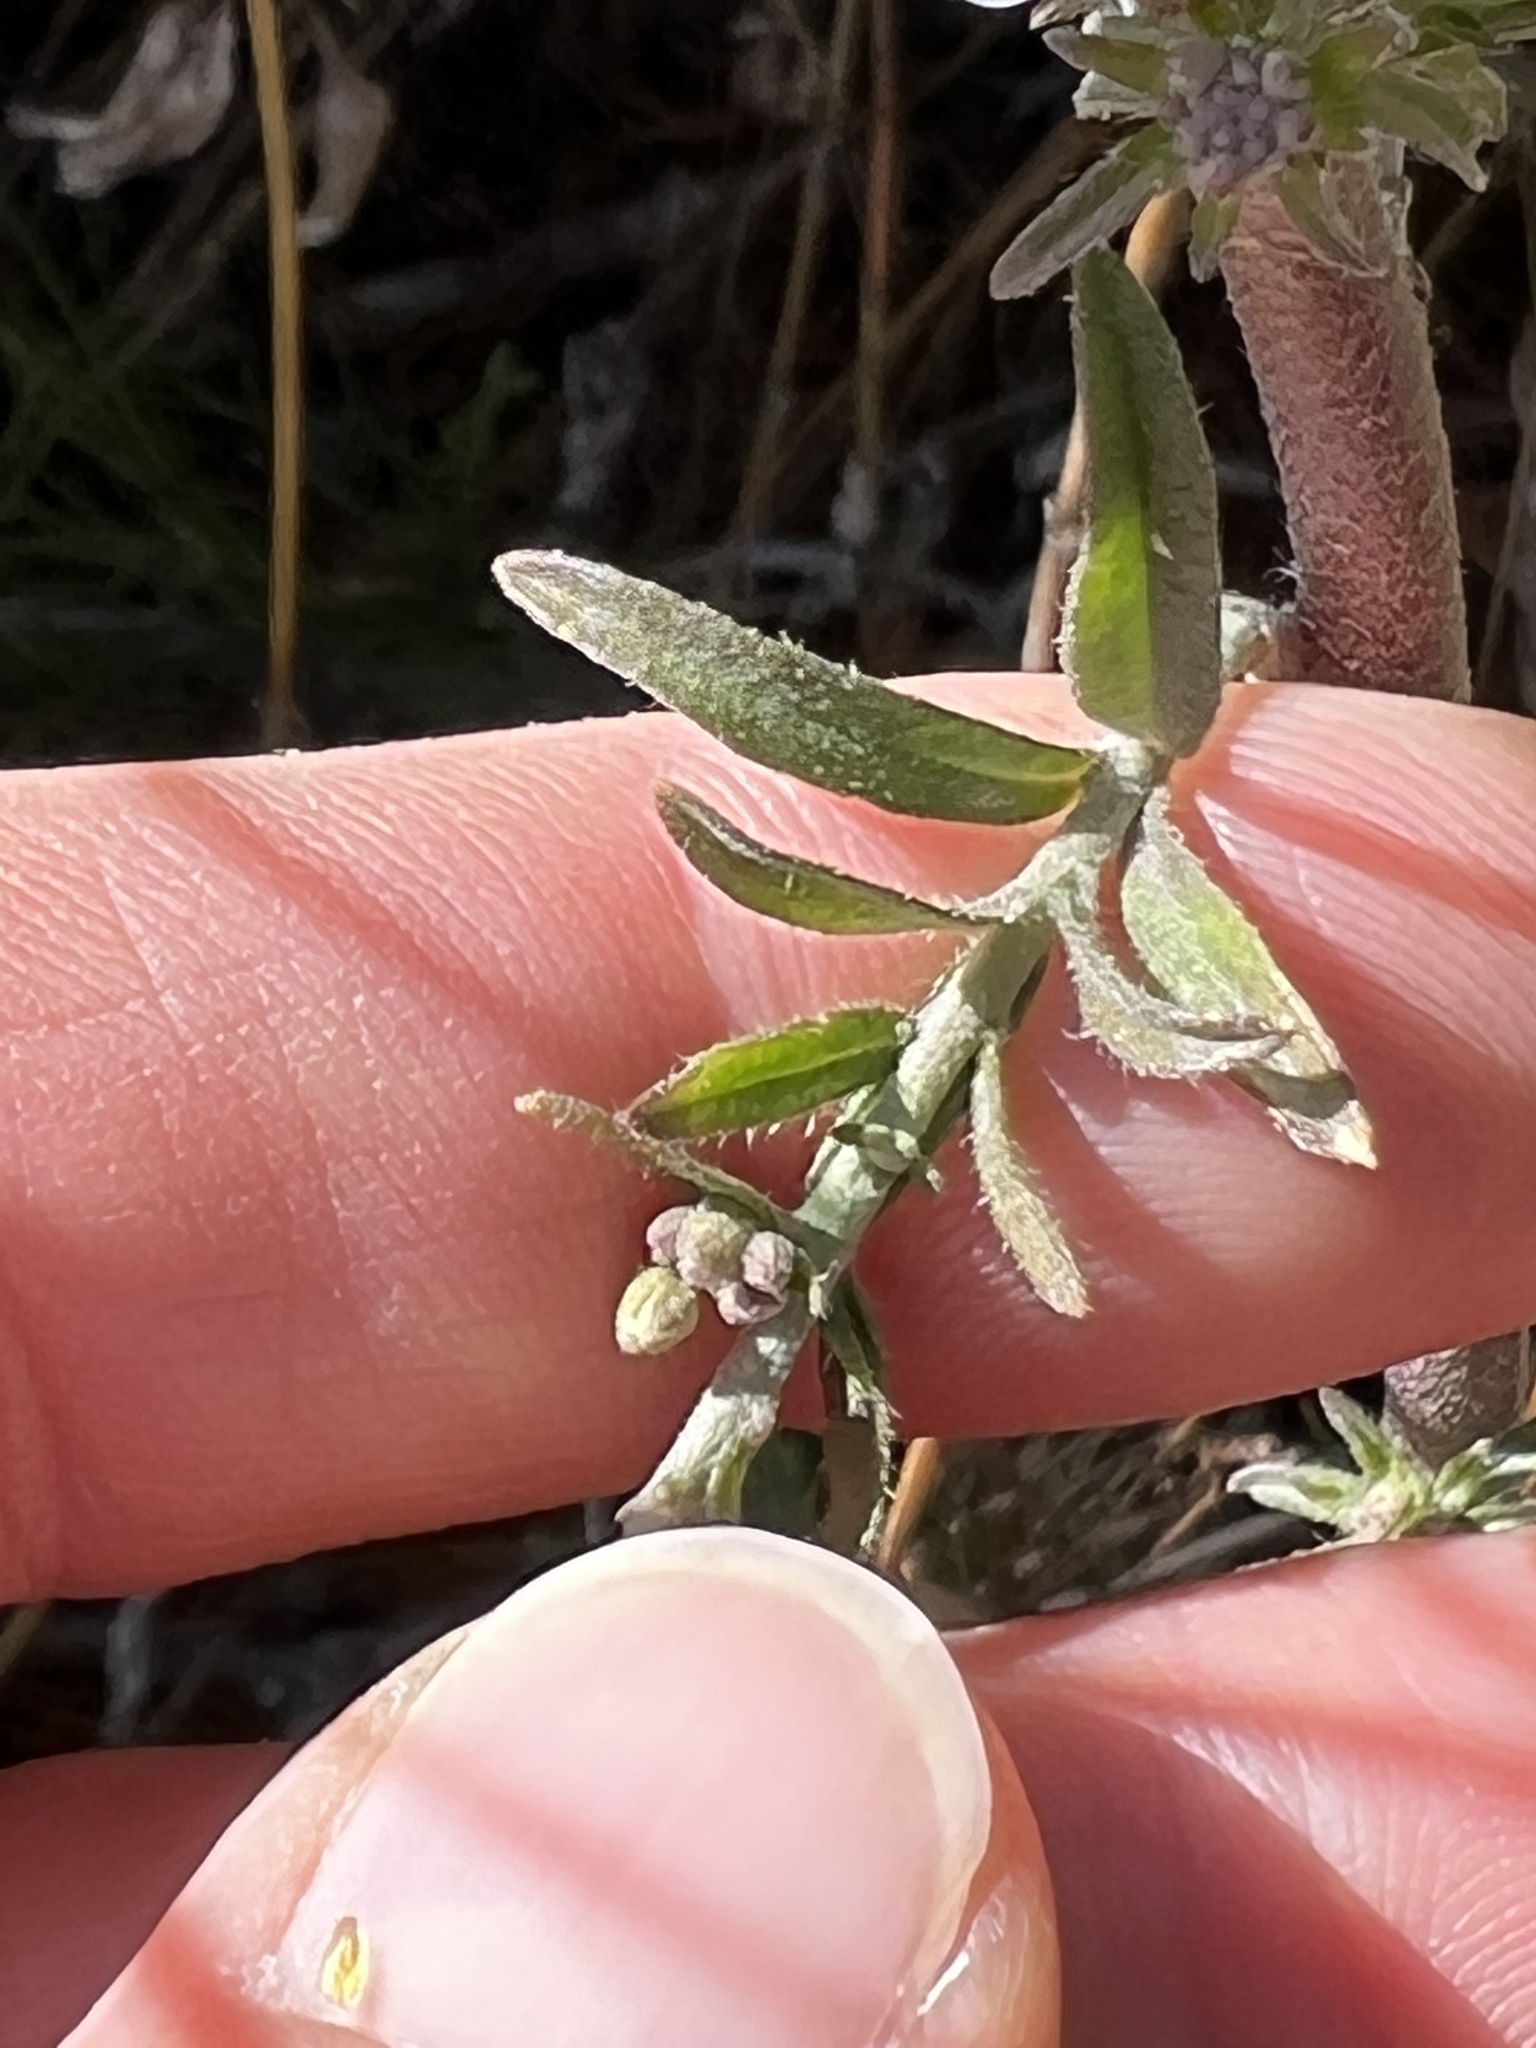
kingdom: Plantae
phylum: Tracheophyta
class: Magnoliopsida
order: Brassicales
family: Brassicaceae
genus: Berteroa
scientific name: Berteroa incana
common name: Hoary alison
